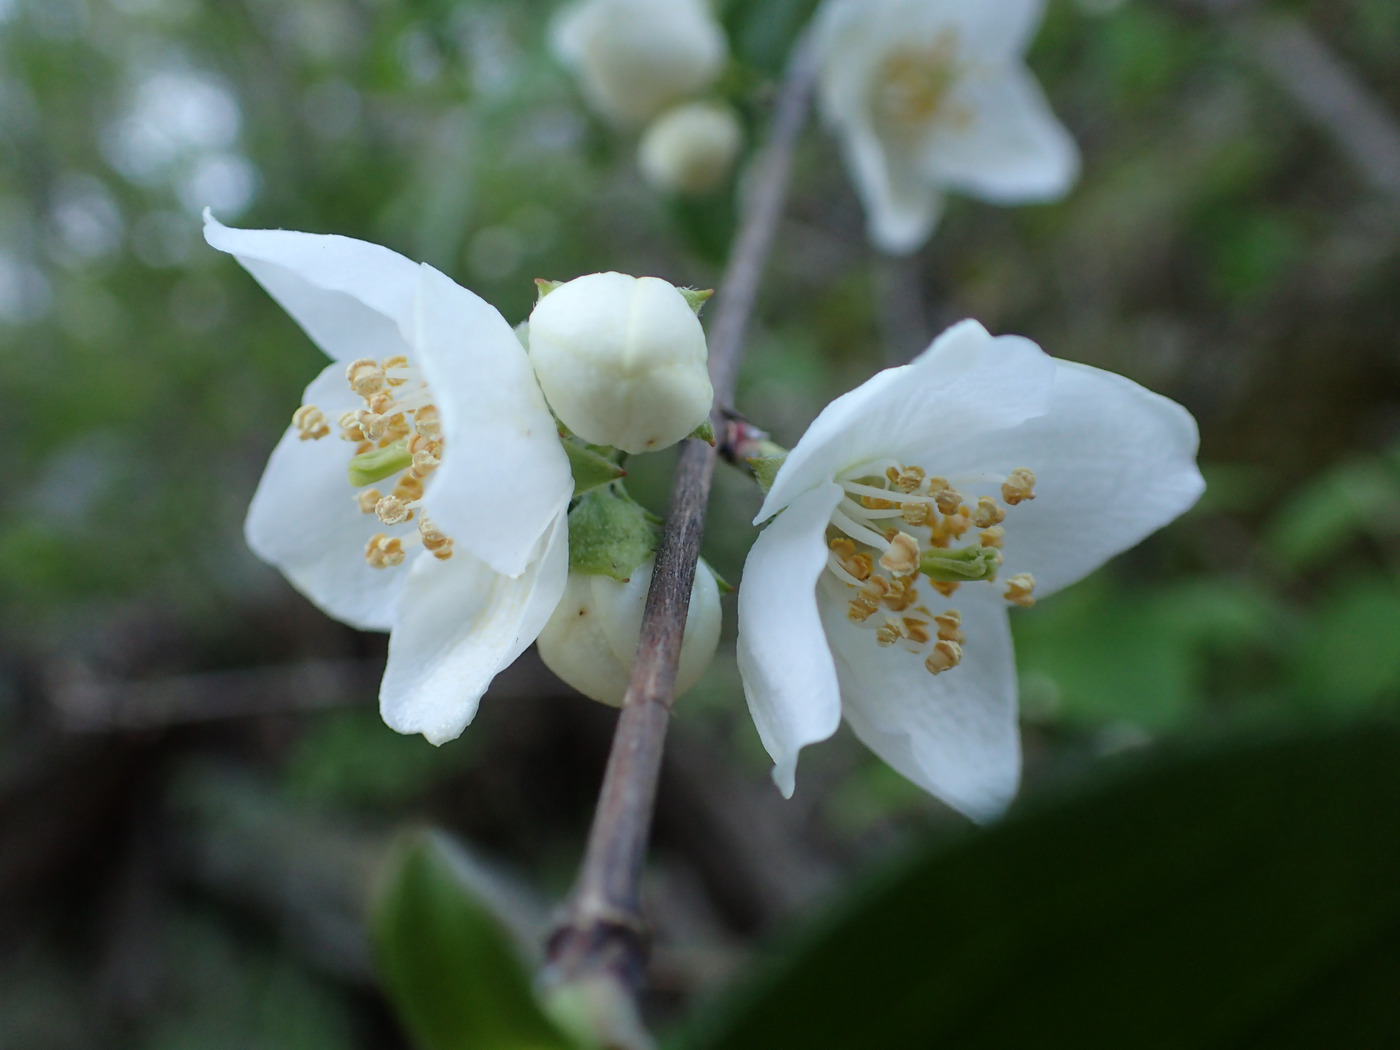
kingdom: Plantae
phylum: Tracheophyta
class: Magnoliopsida
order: Cornales
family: Hydrangeaceae
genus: Philadelphus
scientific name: Philadelphus hirsutus
